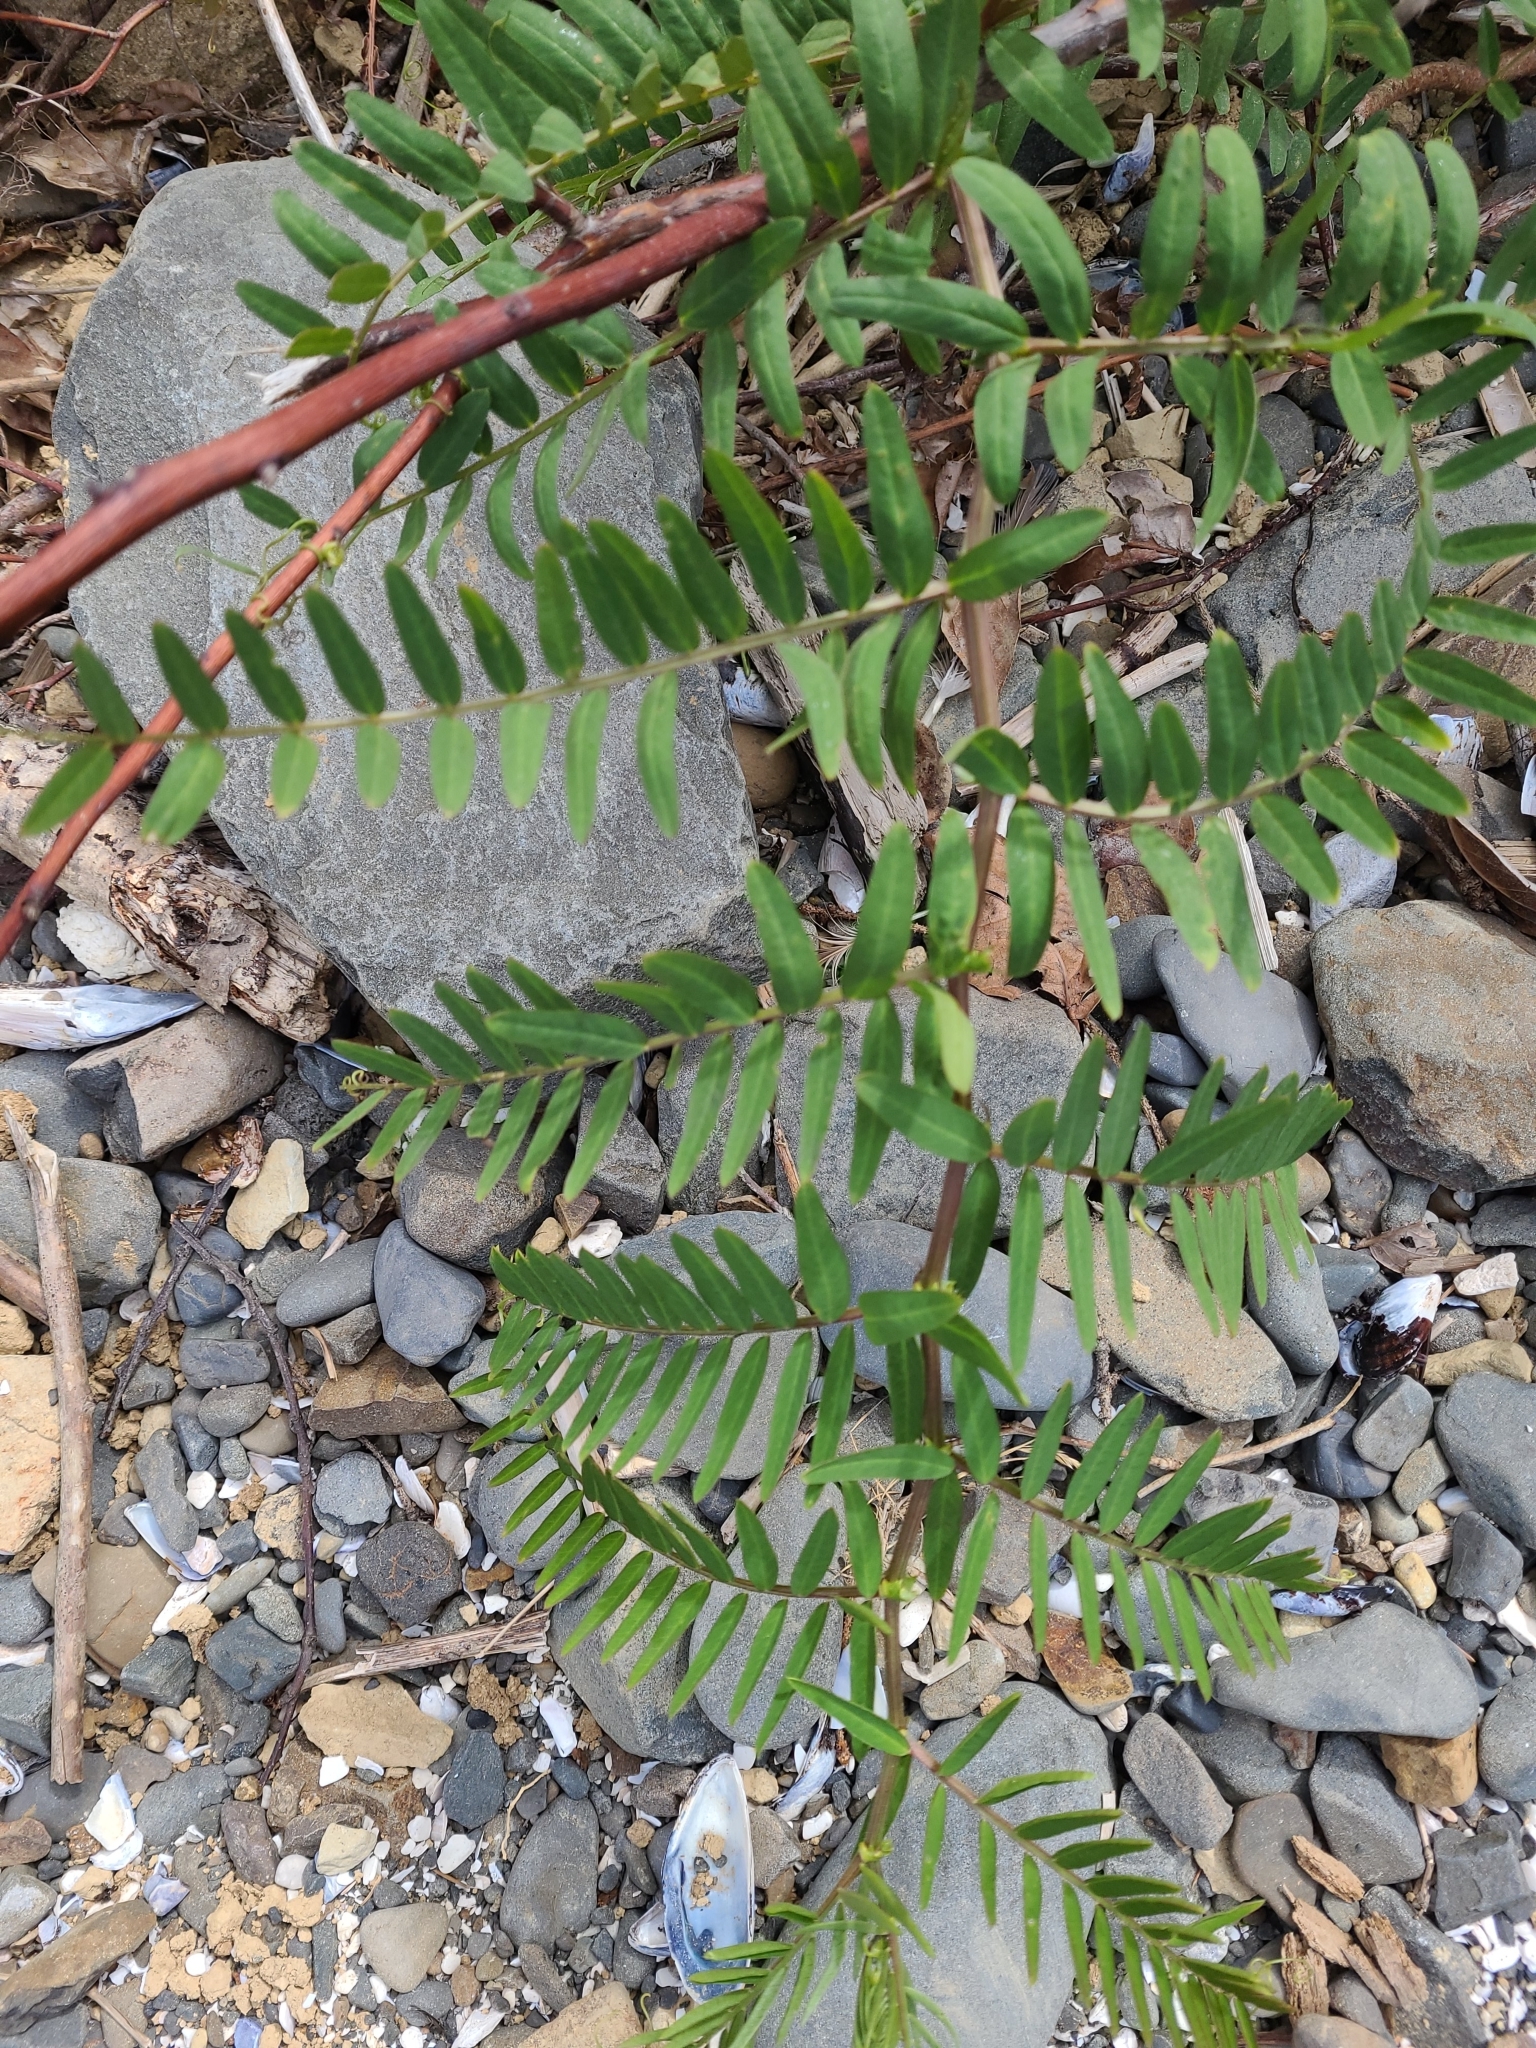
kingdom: Plantae
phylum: Tracheophyta
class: Magnoliopsida
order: Fabales
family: Fabaceae
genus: Vicia
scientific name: Vicia
